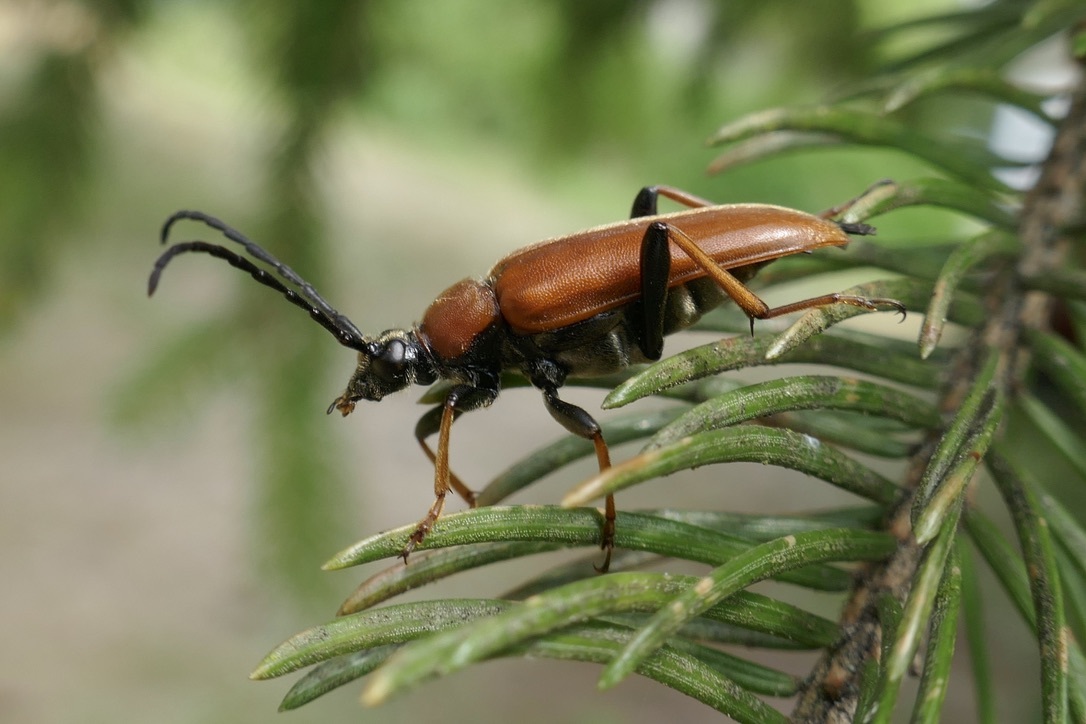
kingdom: Animalia
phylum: Arthropoda
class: Insecta
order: Coleoptera
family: Cerambycidae
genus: Stictoleptura
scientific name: Stictoleptura rubra
